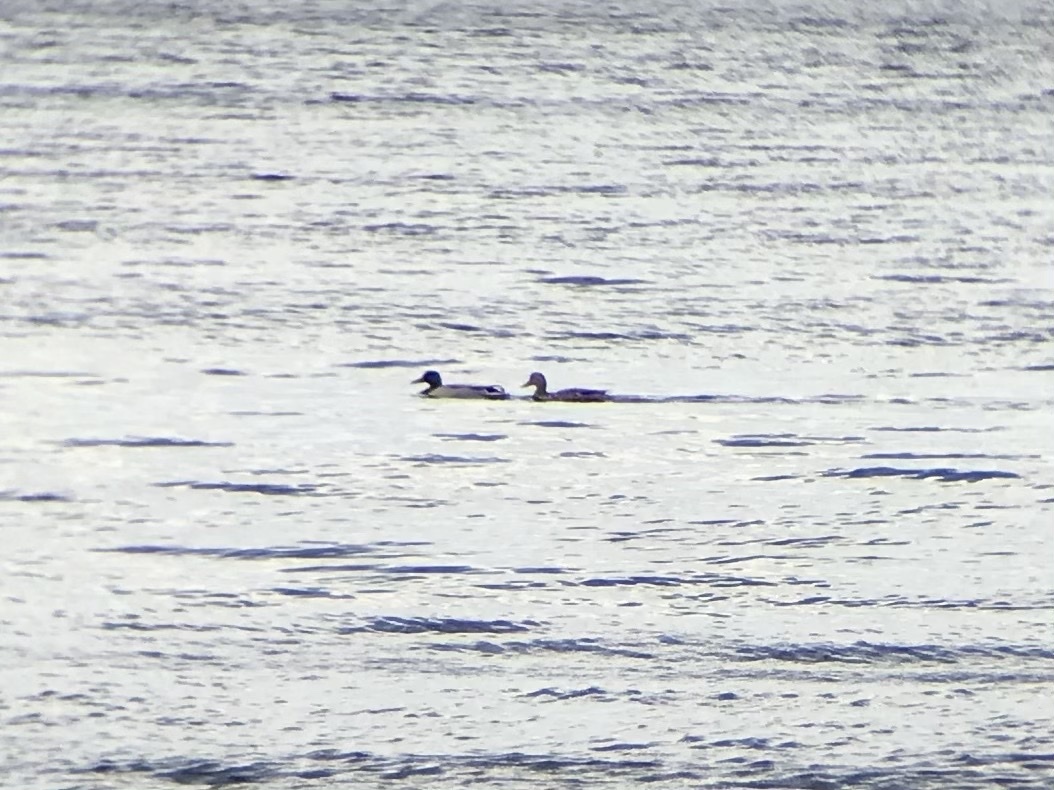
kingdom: Animalia
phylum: Chordata
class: Aves
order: Anseriformes
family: Anatidae
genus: Anas
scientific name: Anas platyrhynchos
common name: Mallard
